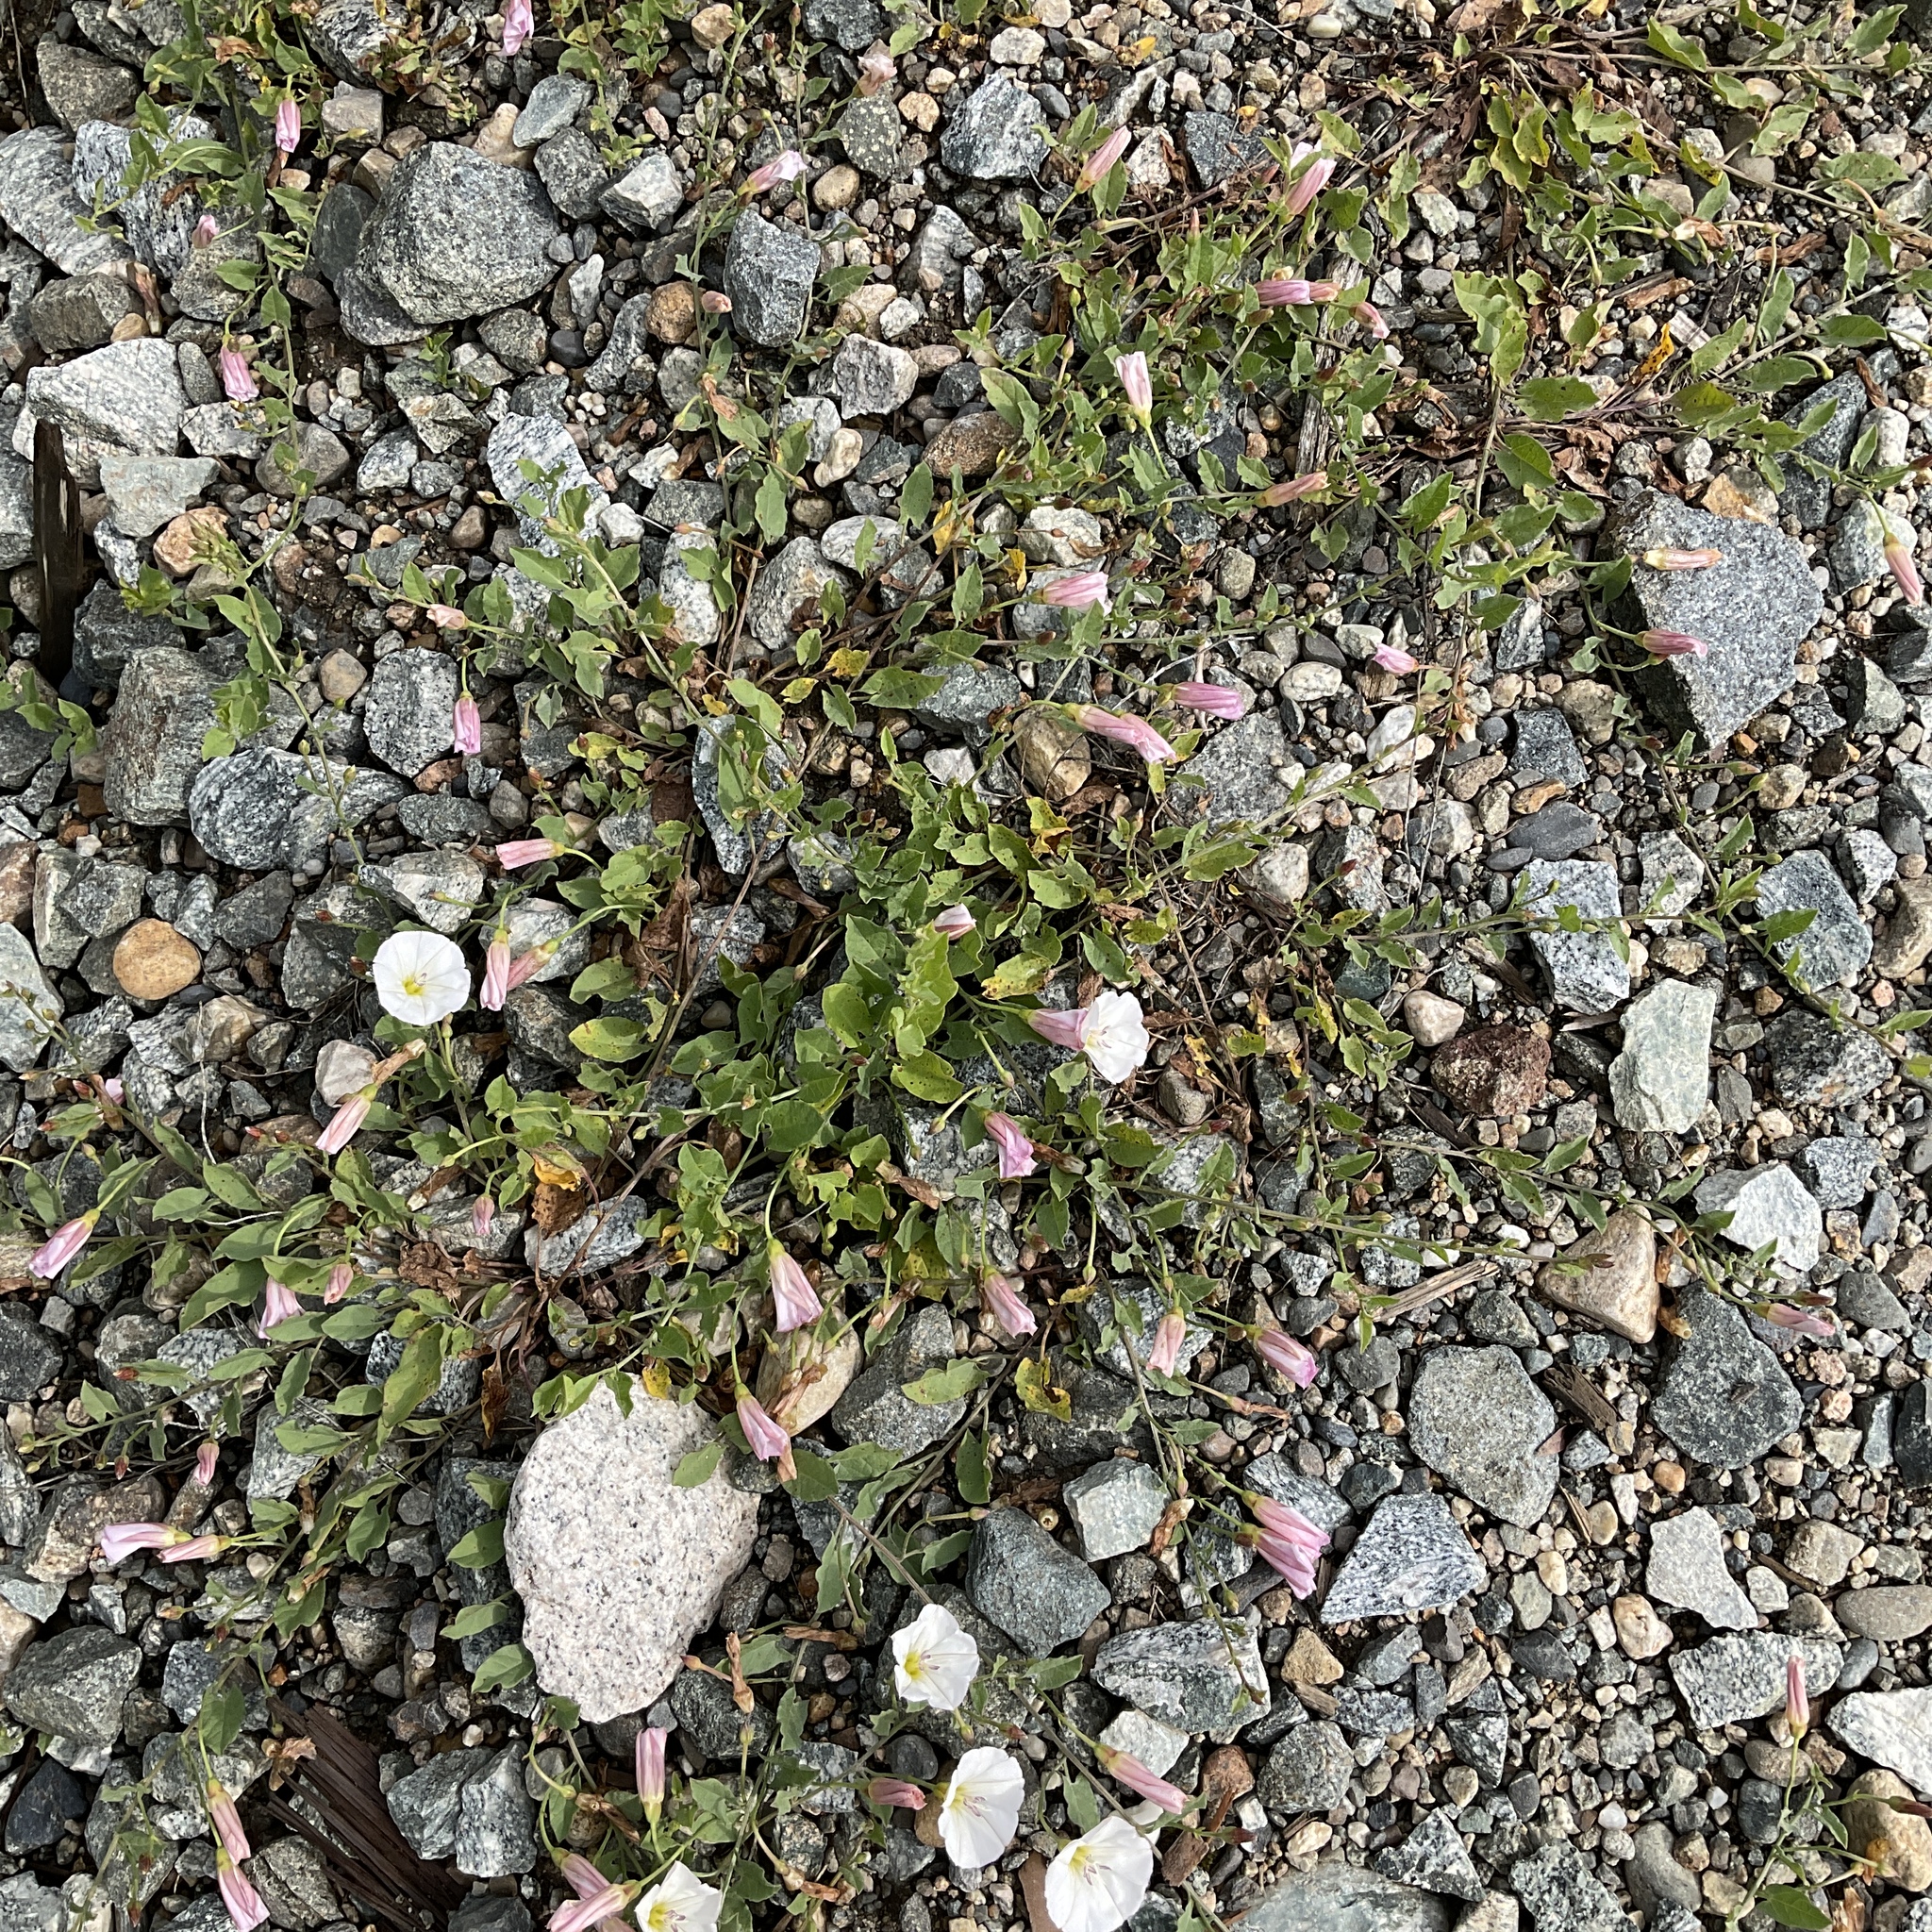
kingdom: Plantae
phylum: Tracheophyta
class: Magnoliopsida
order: Solanales
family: Convolvulaceae
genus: Convolvulus
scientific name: Convolvulus arvensis
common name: Field bindweed
